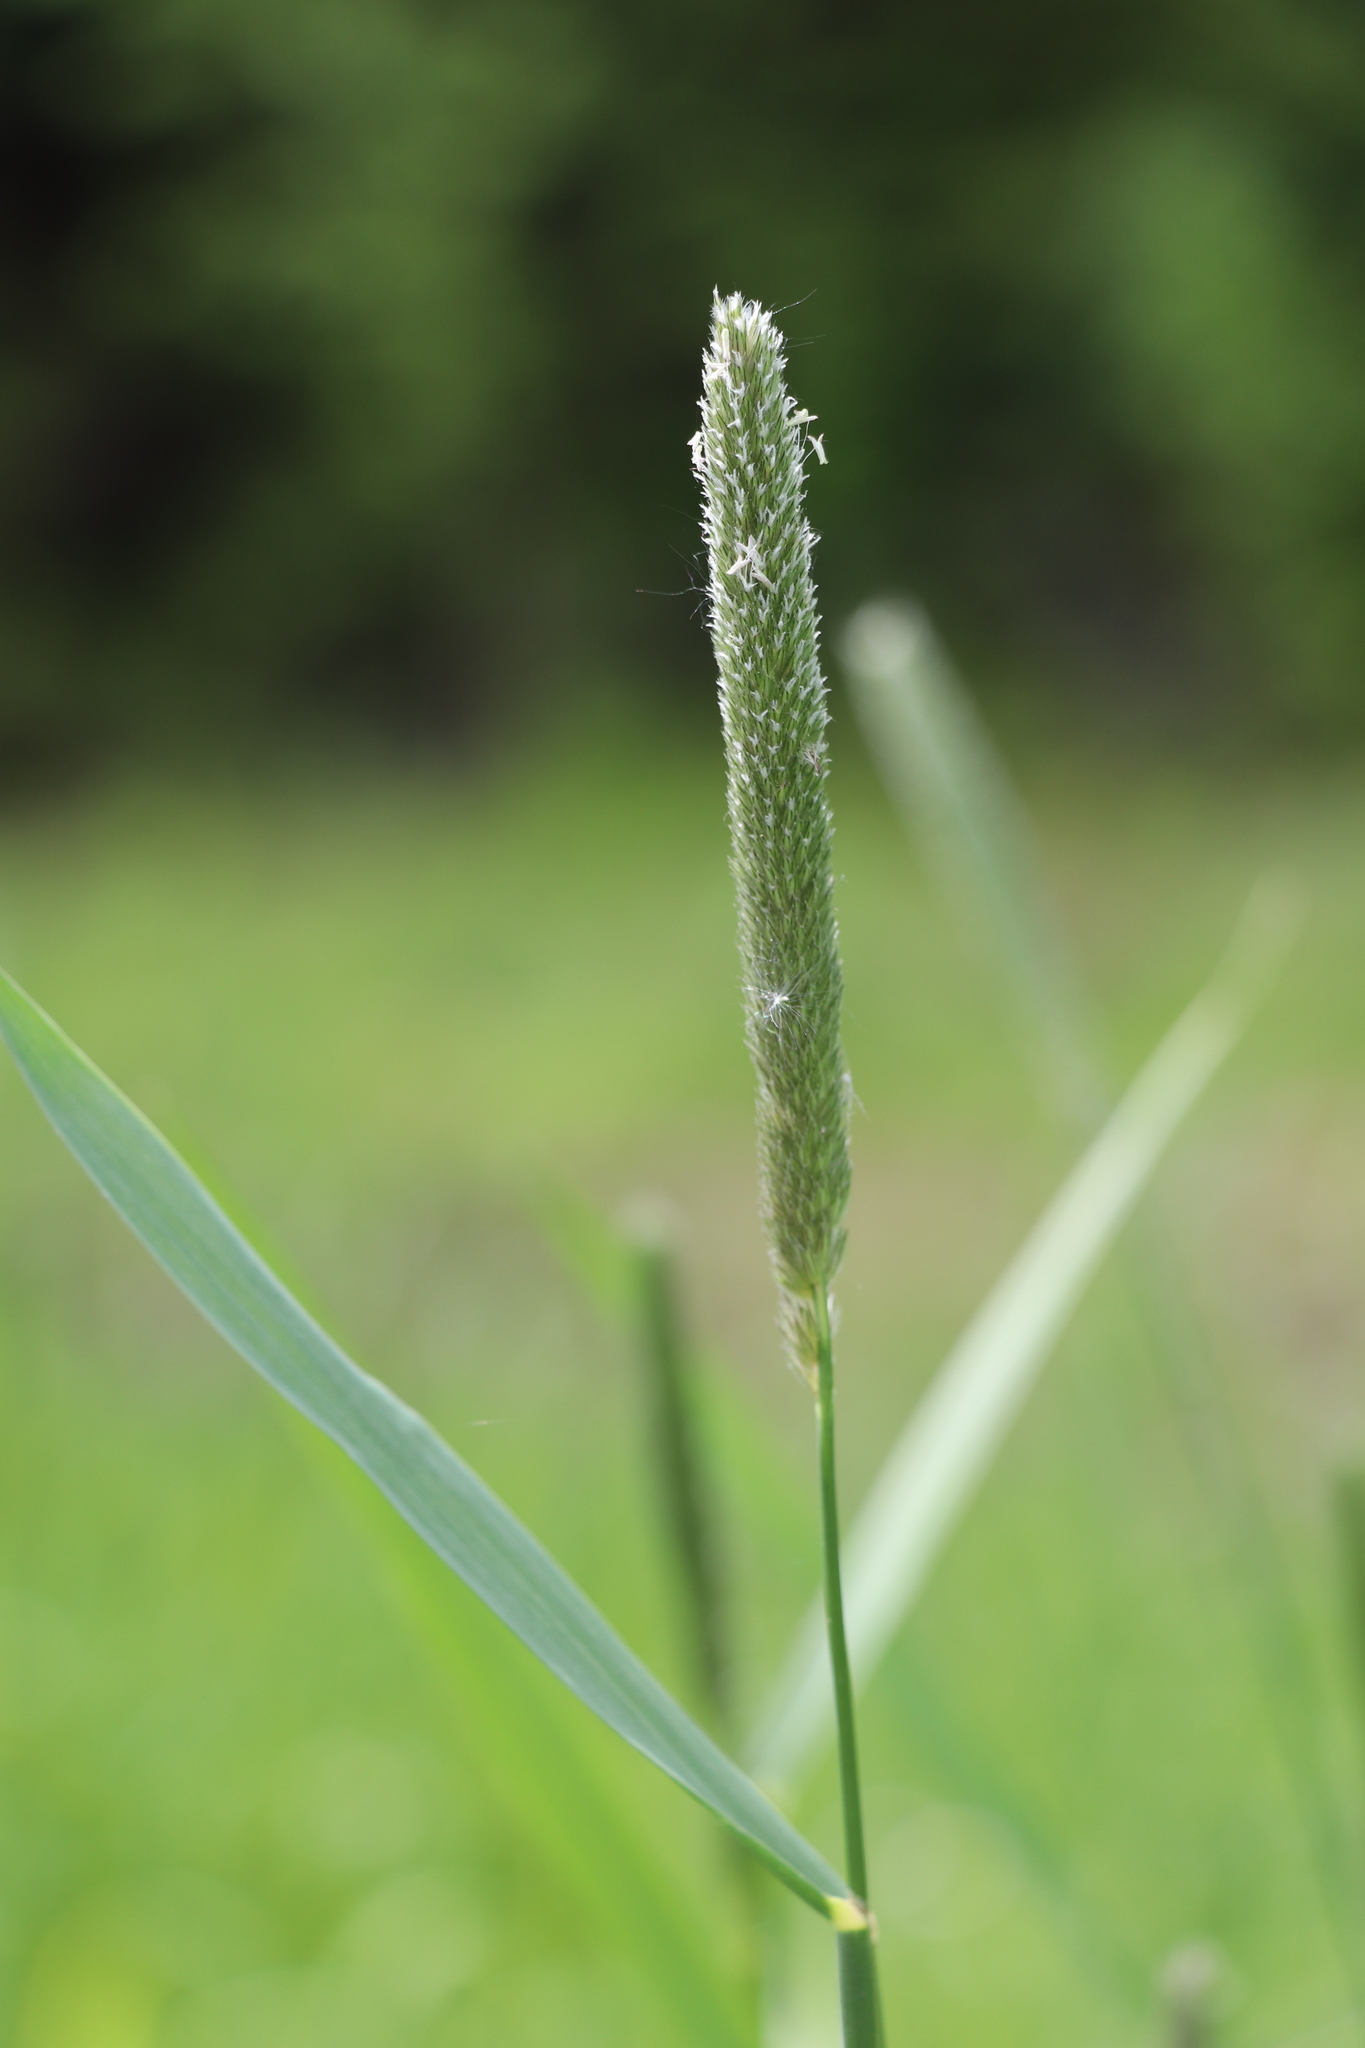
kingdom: Plantae
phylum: Tracheophyta
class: Liliopsida
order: Poales
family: Poaceae
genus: Alopecurus
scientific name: Alopecurus pratensis
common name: Meadow foxtail
